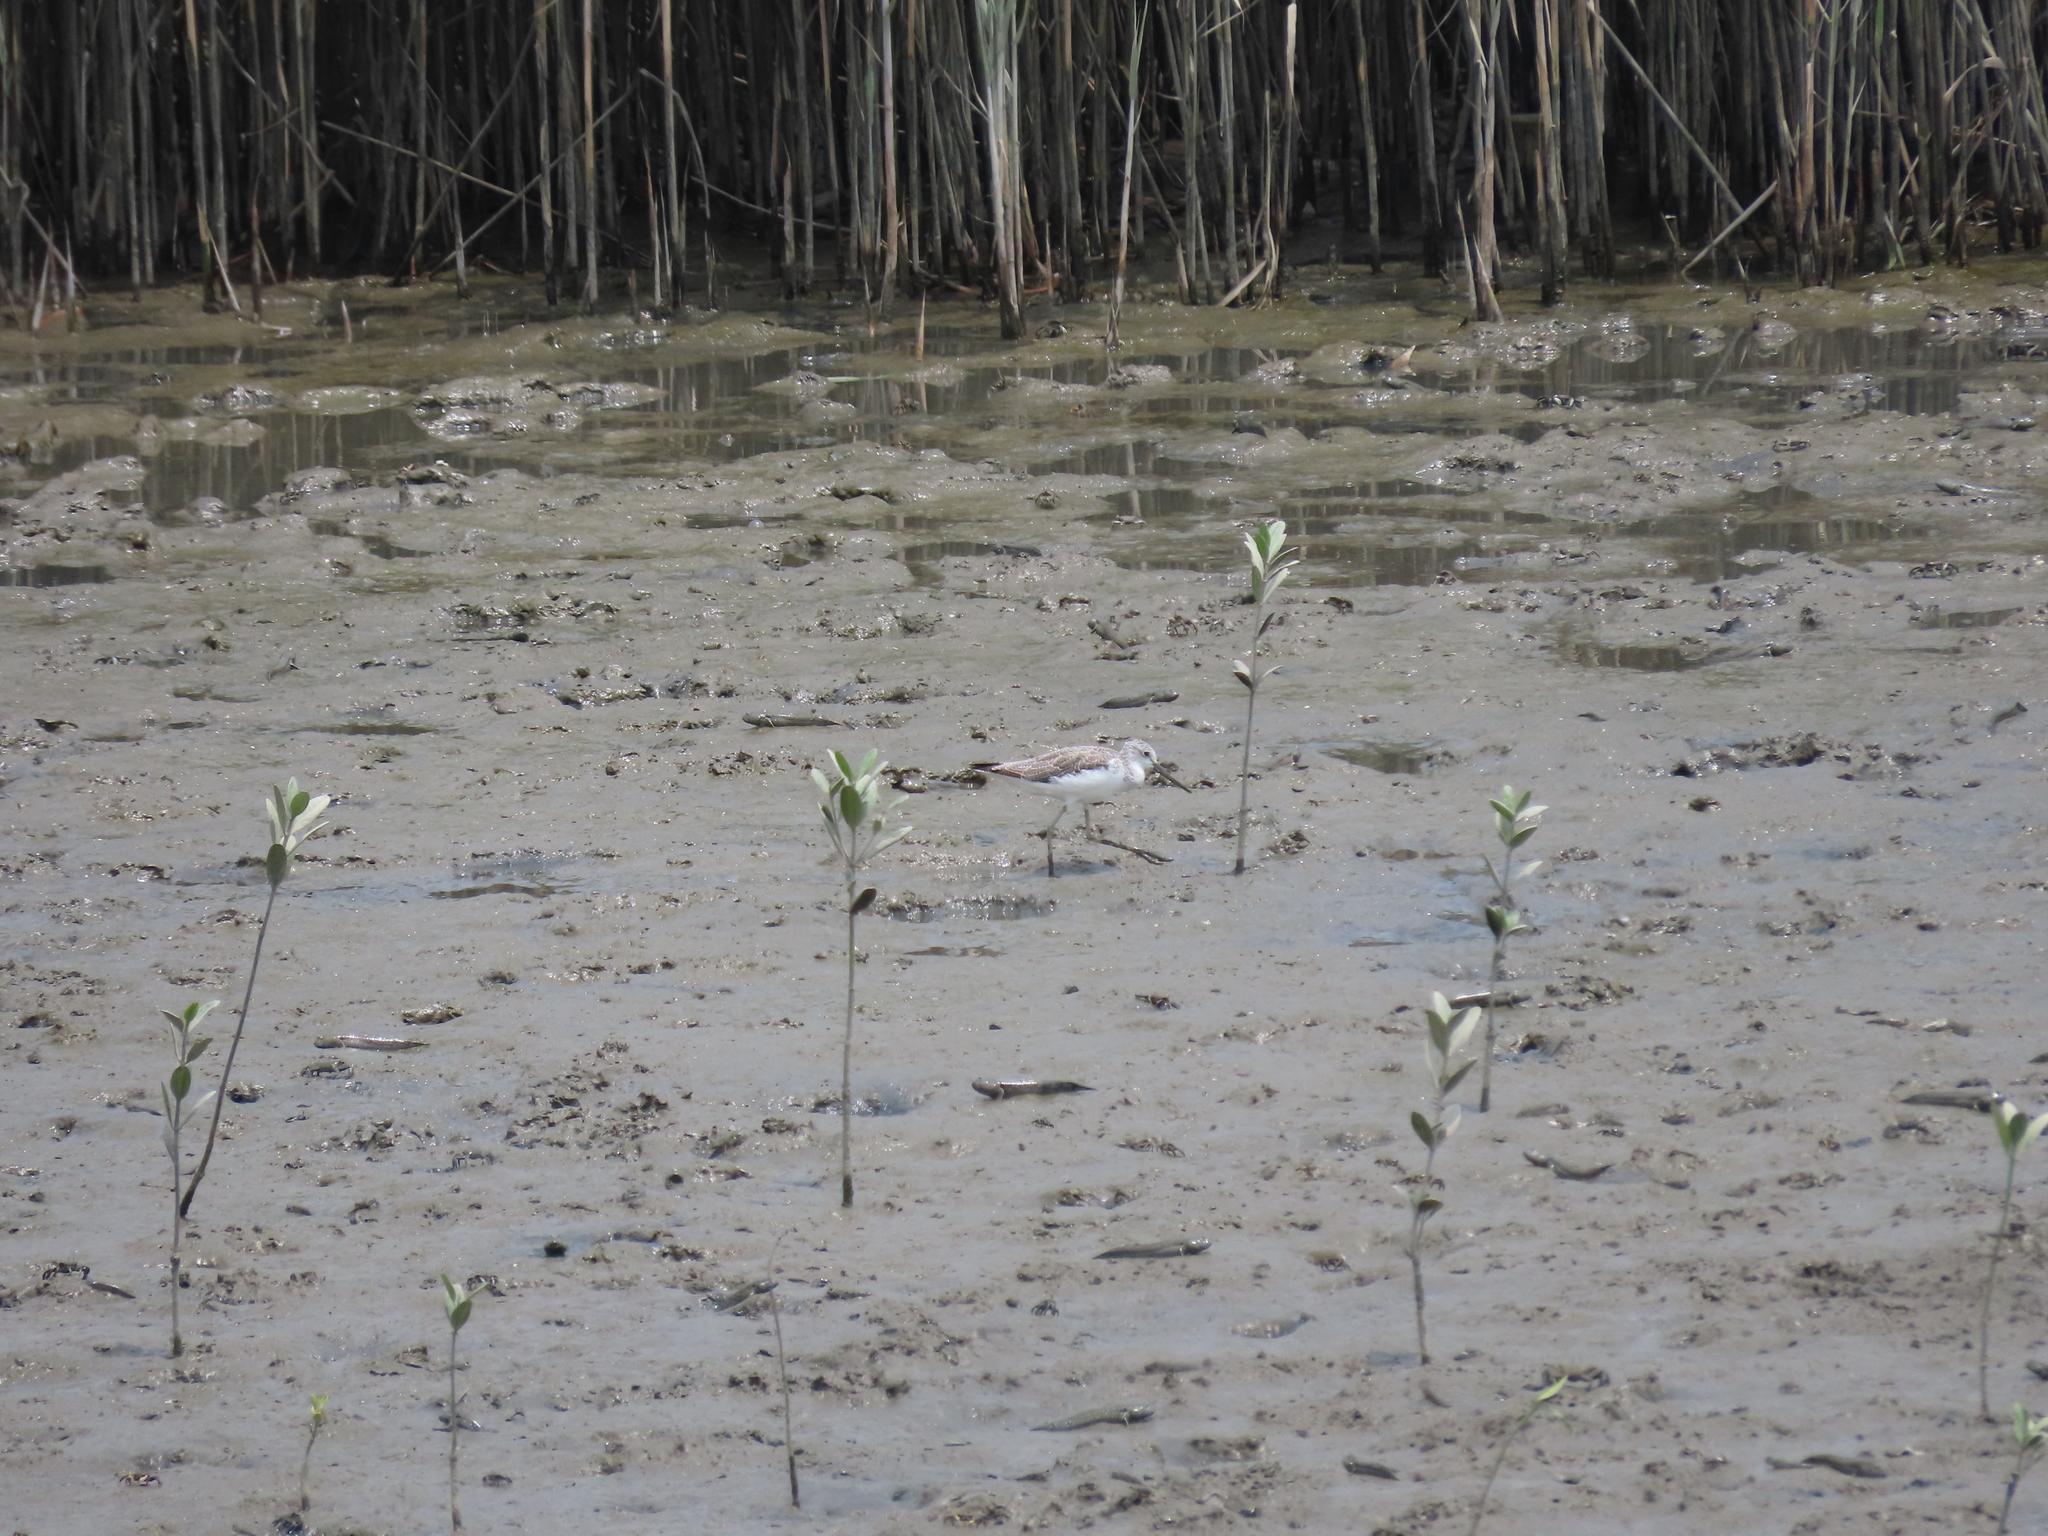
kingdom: Animalia
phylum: Chordata
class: Aves
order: Charadriiformes
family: Scolopacidae
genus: Tringa
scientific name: Tringa nebularia
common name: Common greenshank
